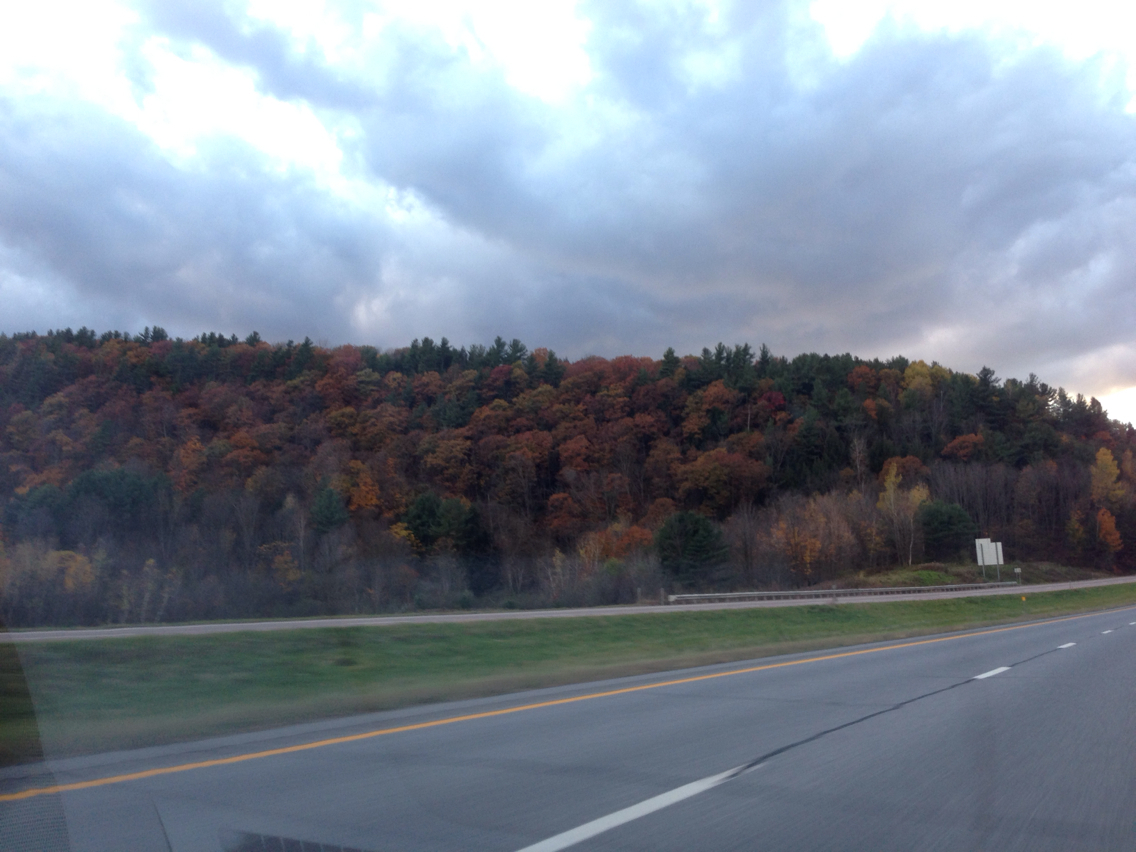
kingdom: Plantae
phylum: Tracheophyta
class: Magnoliopsida
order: Fagales
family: Fagaceae
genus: Quercus
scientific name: Quercus rubra
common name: Red oak
